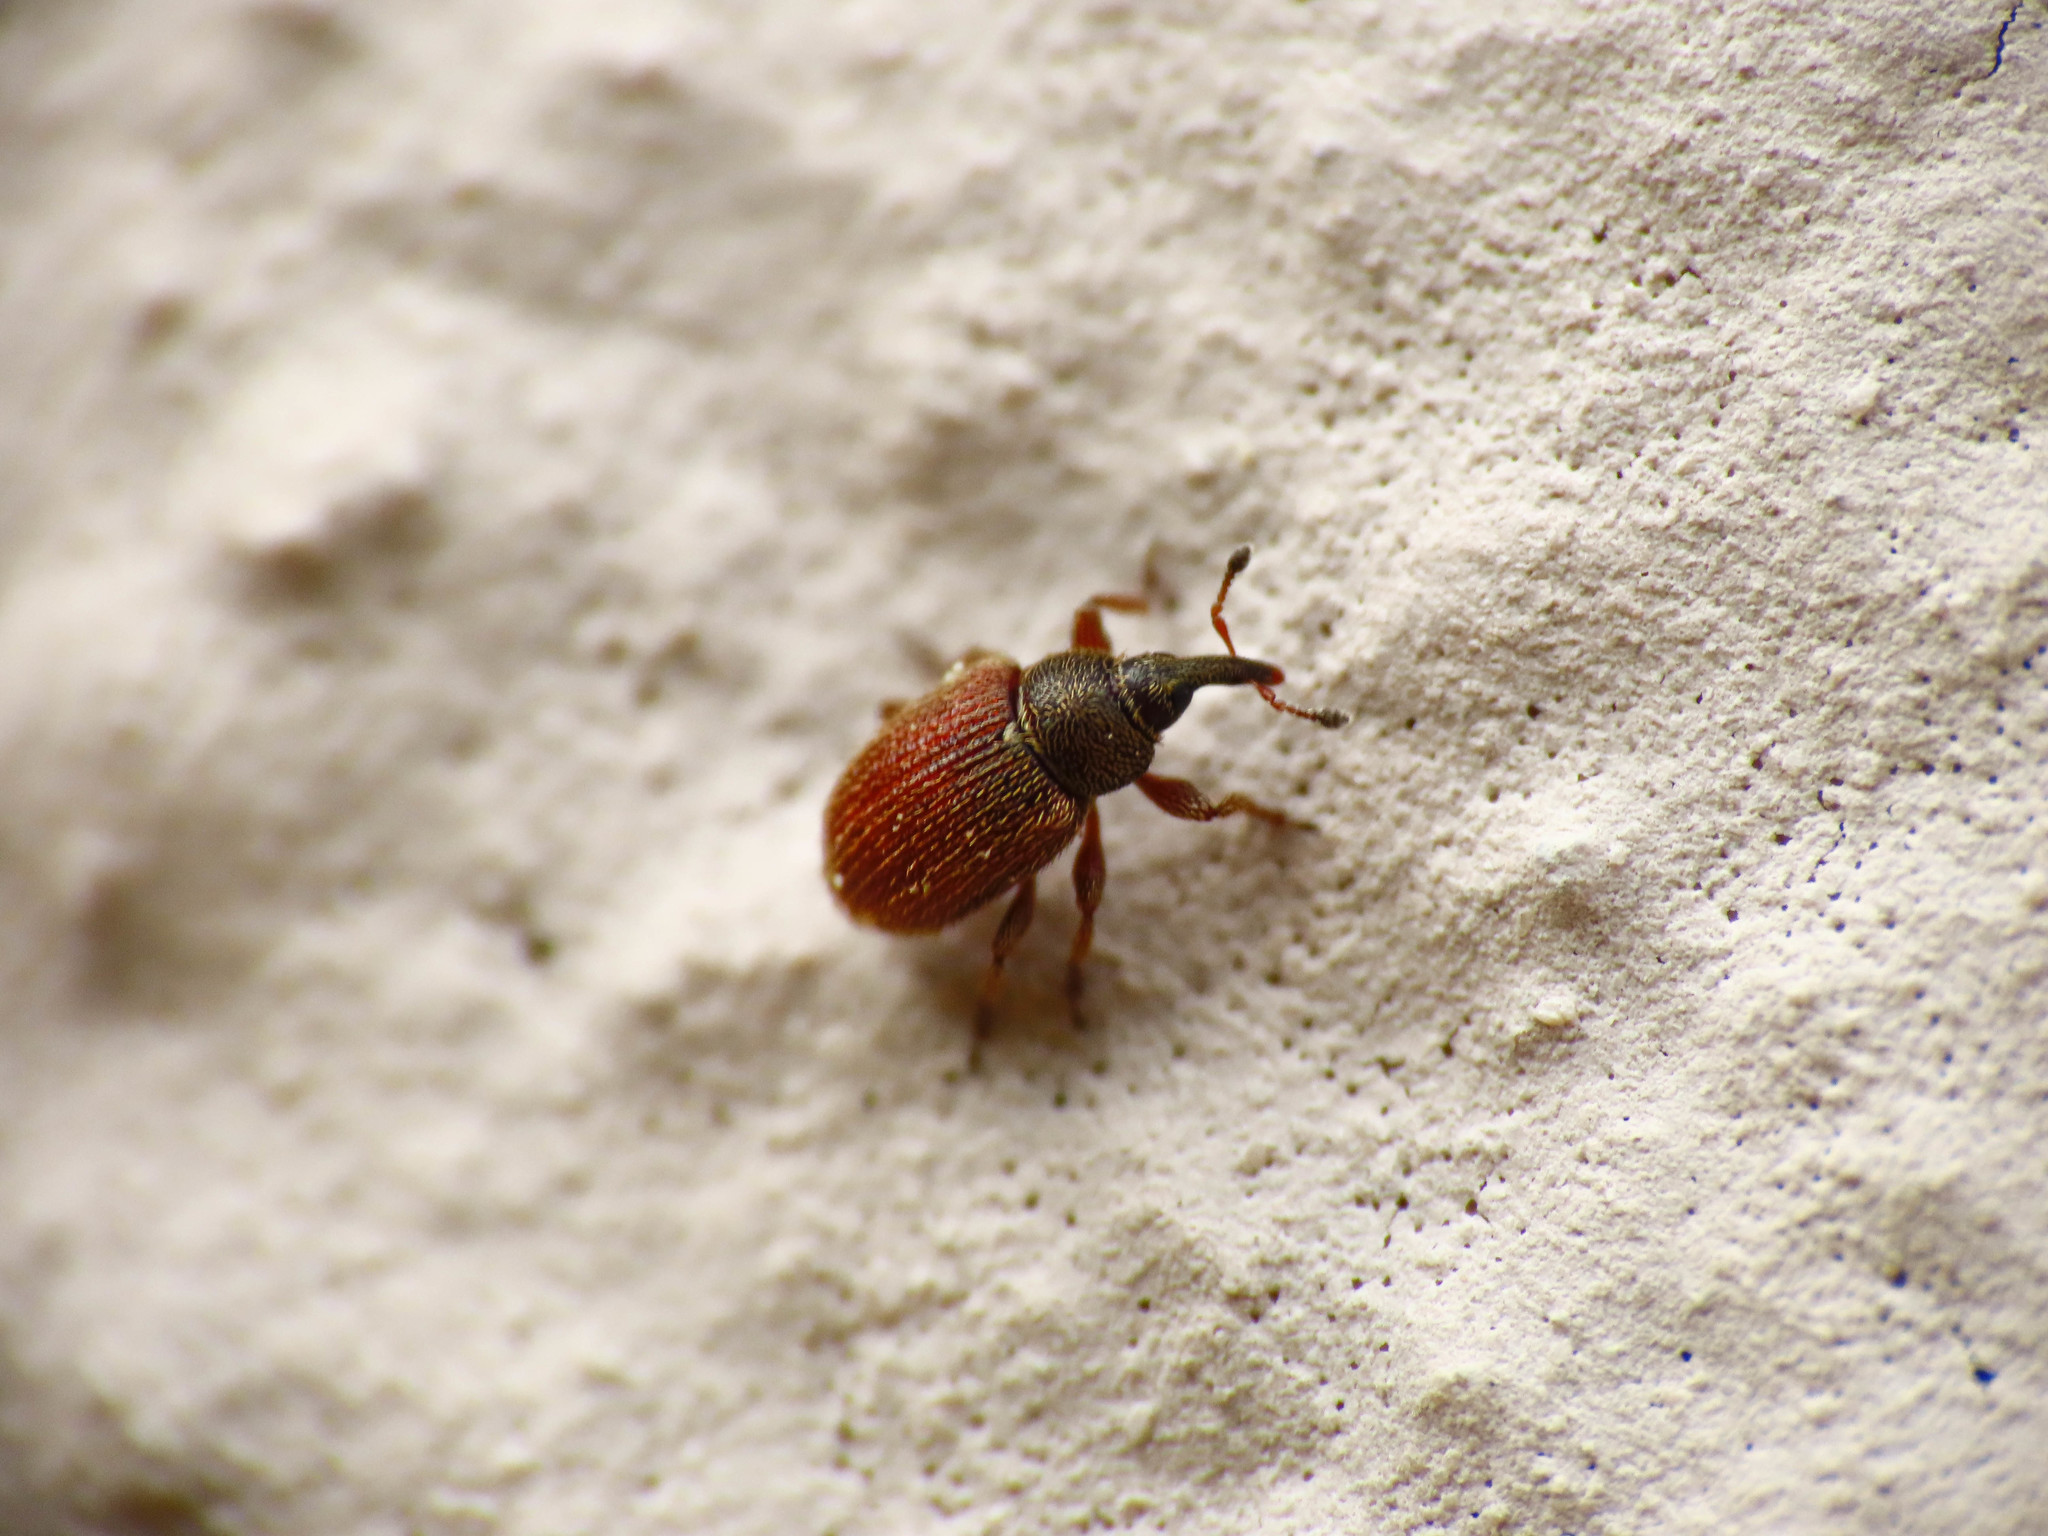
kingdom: Animalia
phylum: Arthropoda
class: Insecta
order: Coleoptera
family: Curculionidae
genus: Gymnetron
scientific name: Gymnetron rotundicolle
